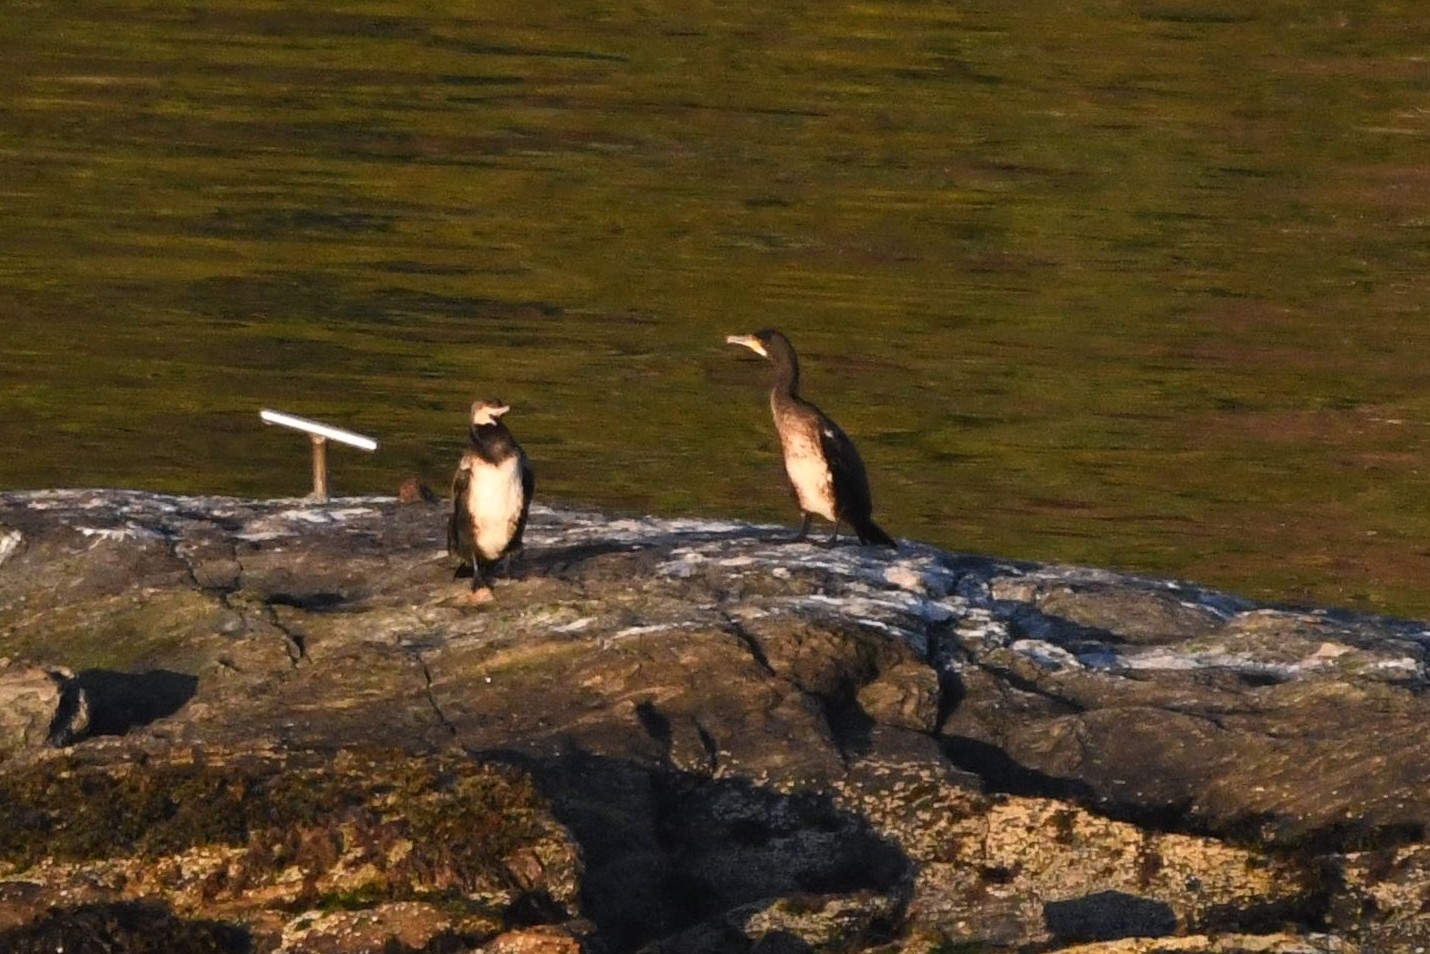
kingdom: Animalia
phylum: Chordata
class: Aves
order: Suliformes
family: Phalacrocoracidae
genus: Phalacrocorax
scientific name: Phalacrocorax carbo
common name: Great cormorant
